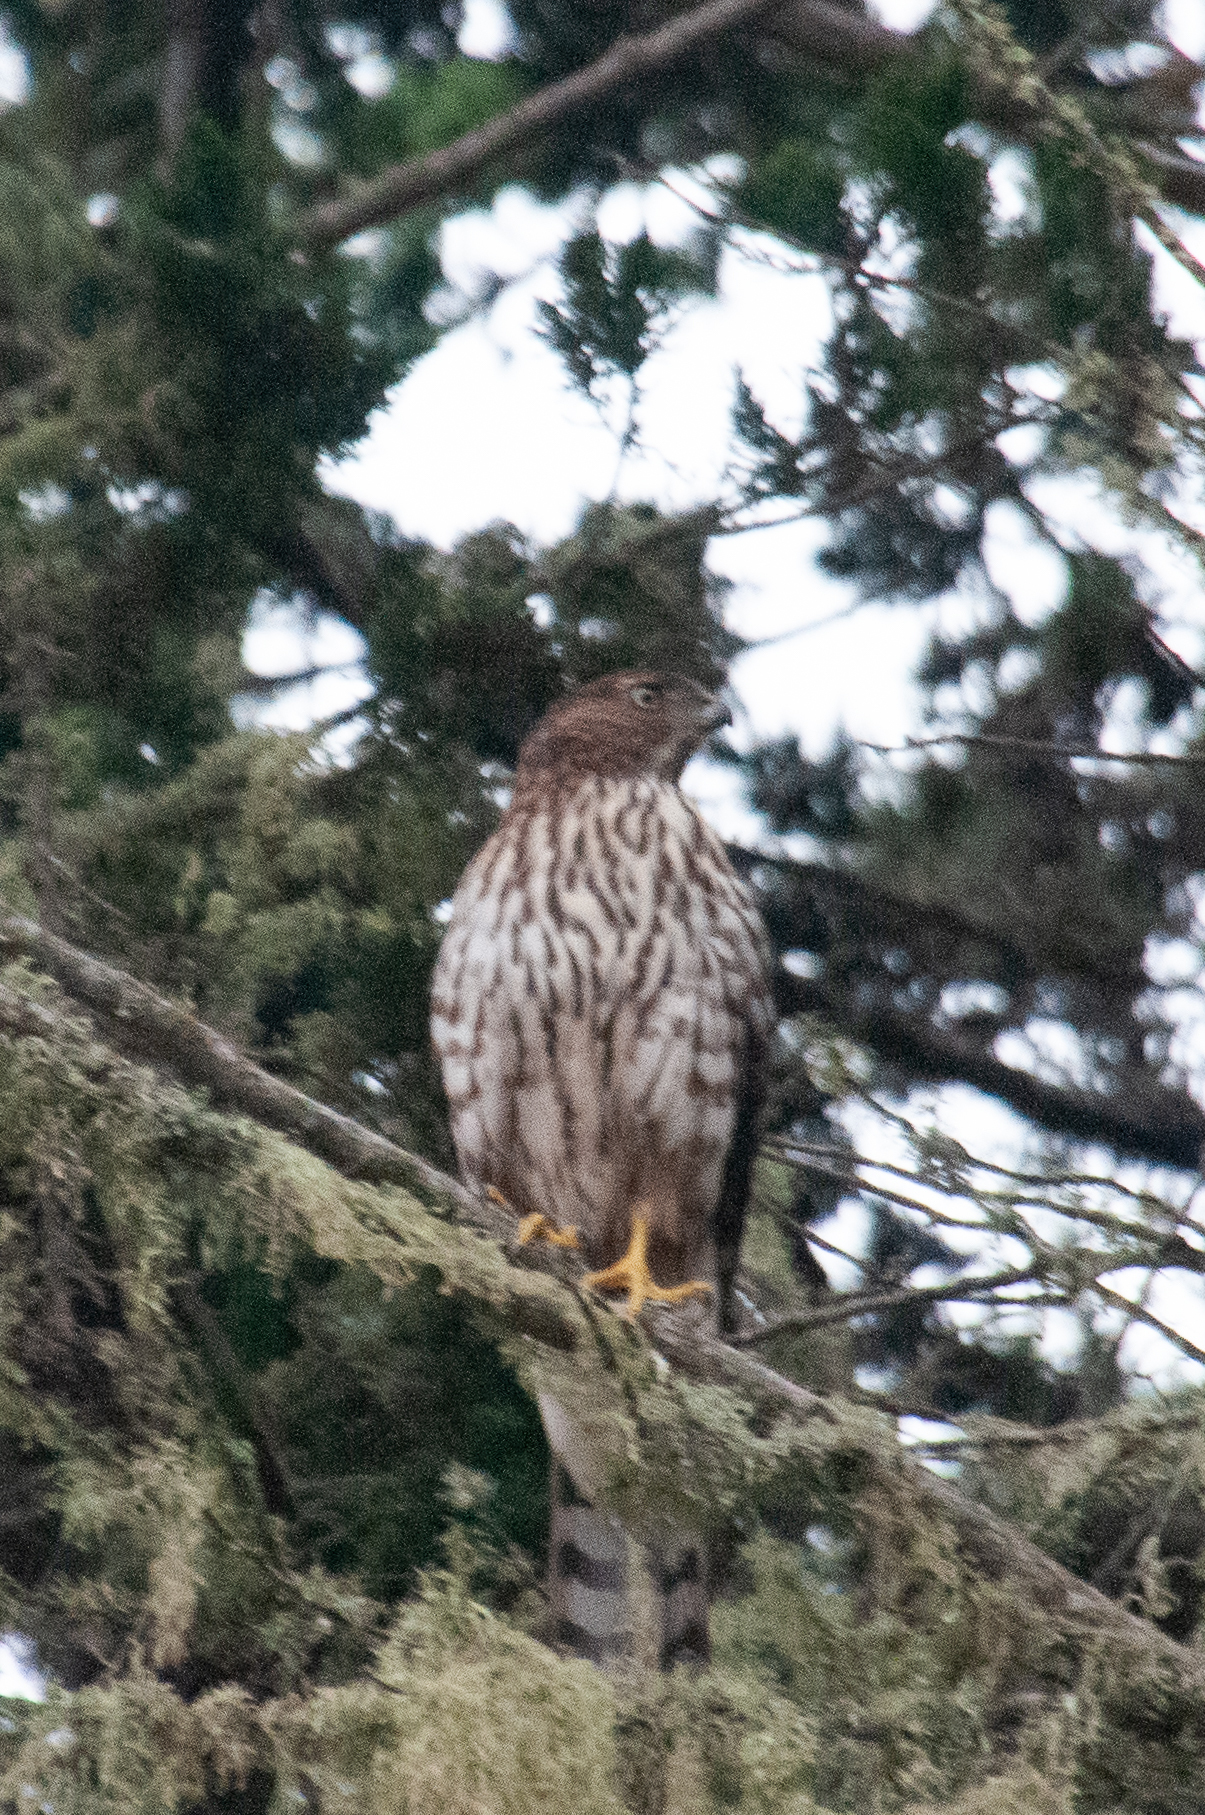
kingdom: Animalia
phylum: Chordata
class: Aves
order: Accipitriformes
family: Accipitridae
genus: Accipiter
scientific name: Accipiter cooperii
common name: Cooper's hawk
